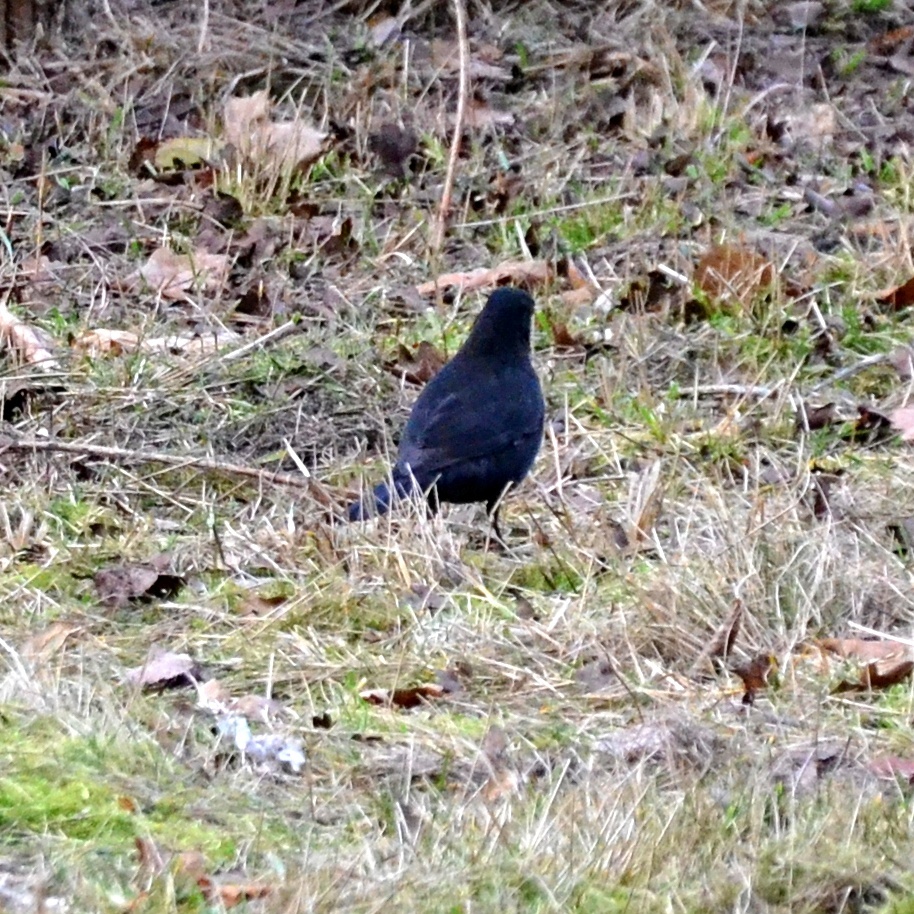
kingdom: Animalia
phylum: Chordata
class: Aves
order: Passeriformes
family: Turdidae
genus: Turdus
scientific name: Turdus merula
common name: Common blackbird
